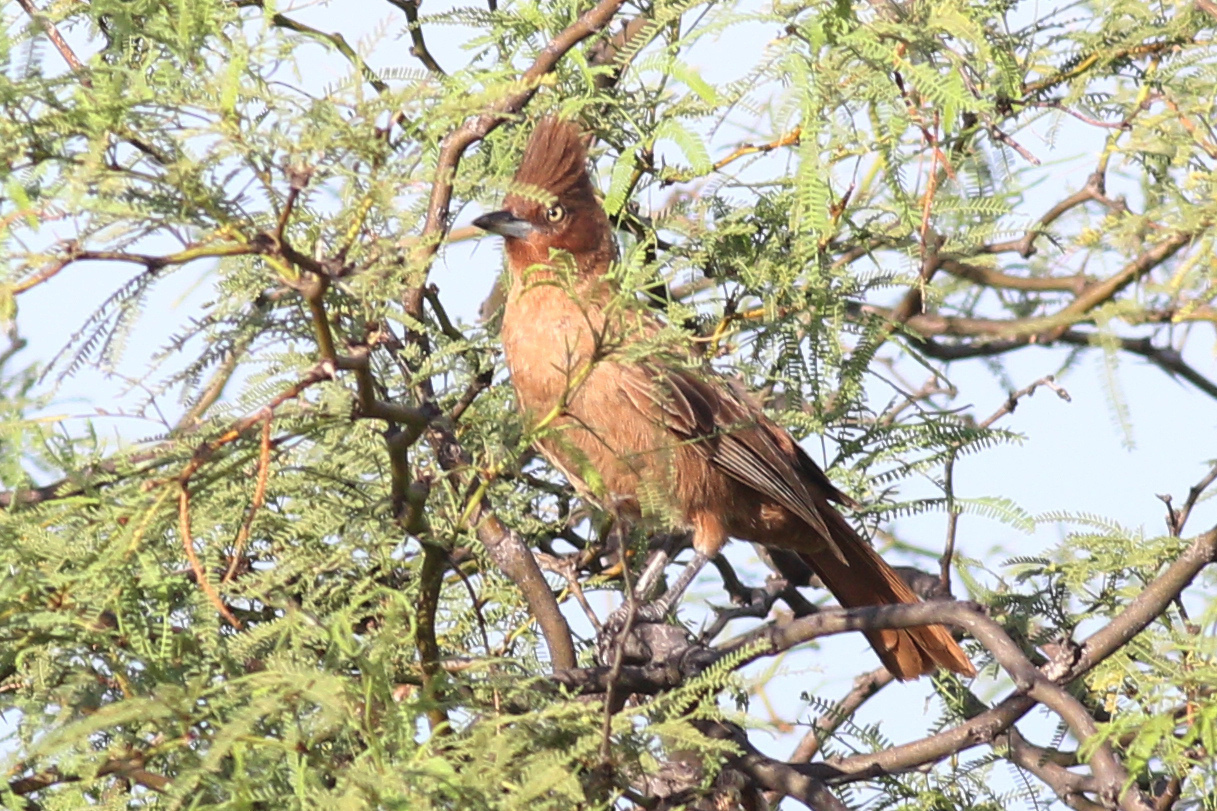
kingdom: Animalia
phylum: Chordata
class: Aves
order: Passeriformes
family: Furnariidae
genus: Pseudoseisura
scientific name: Pseudoseisura lophotes
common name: Brown cacholote
